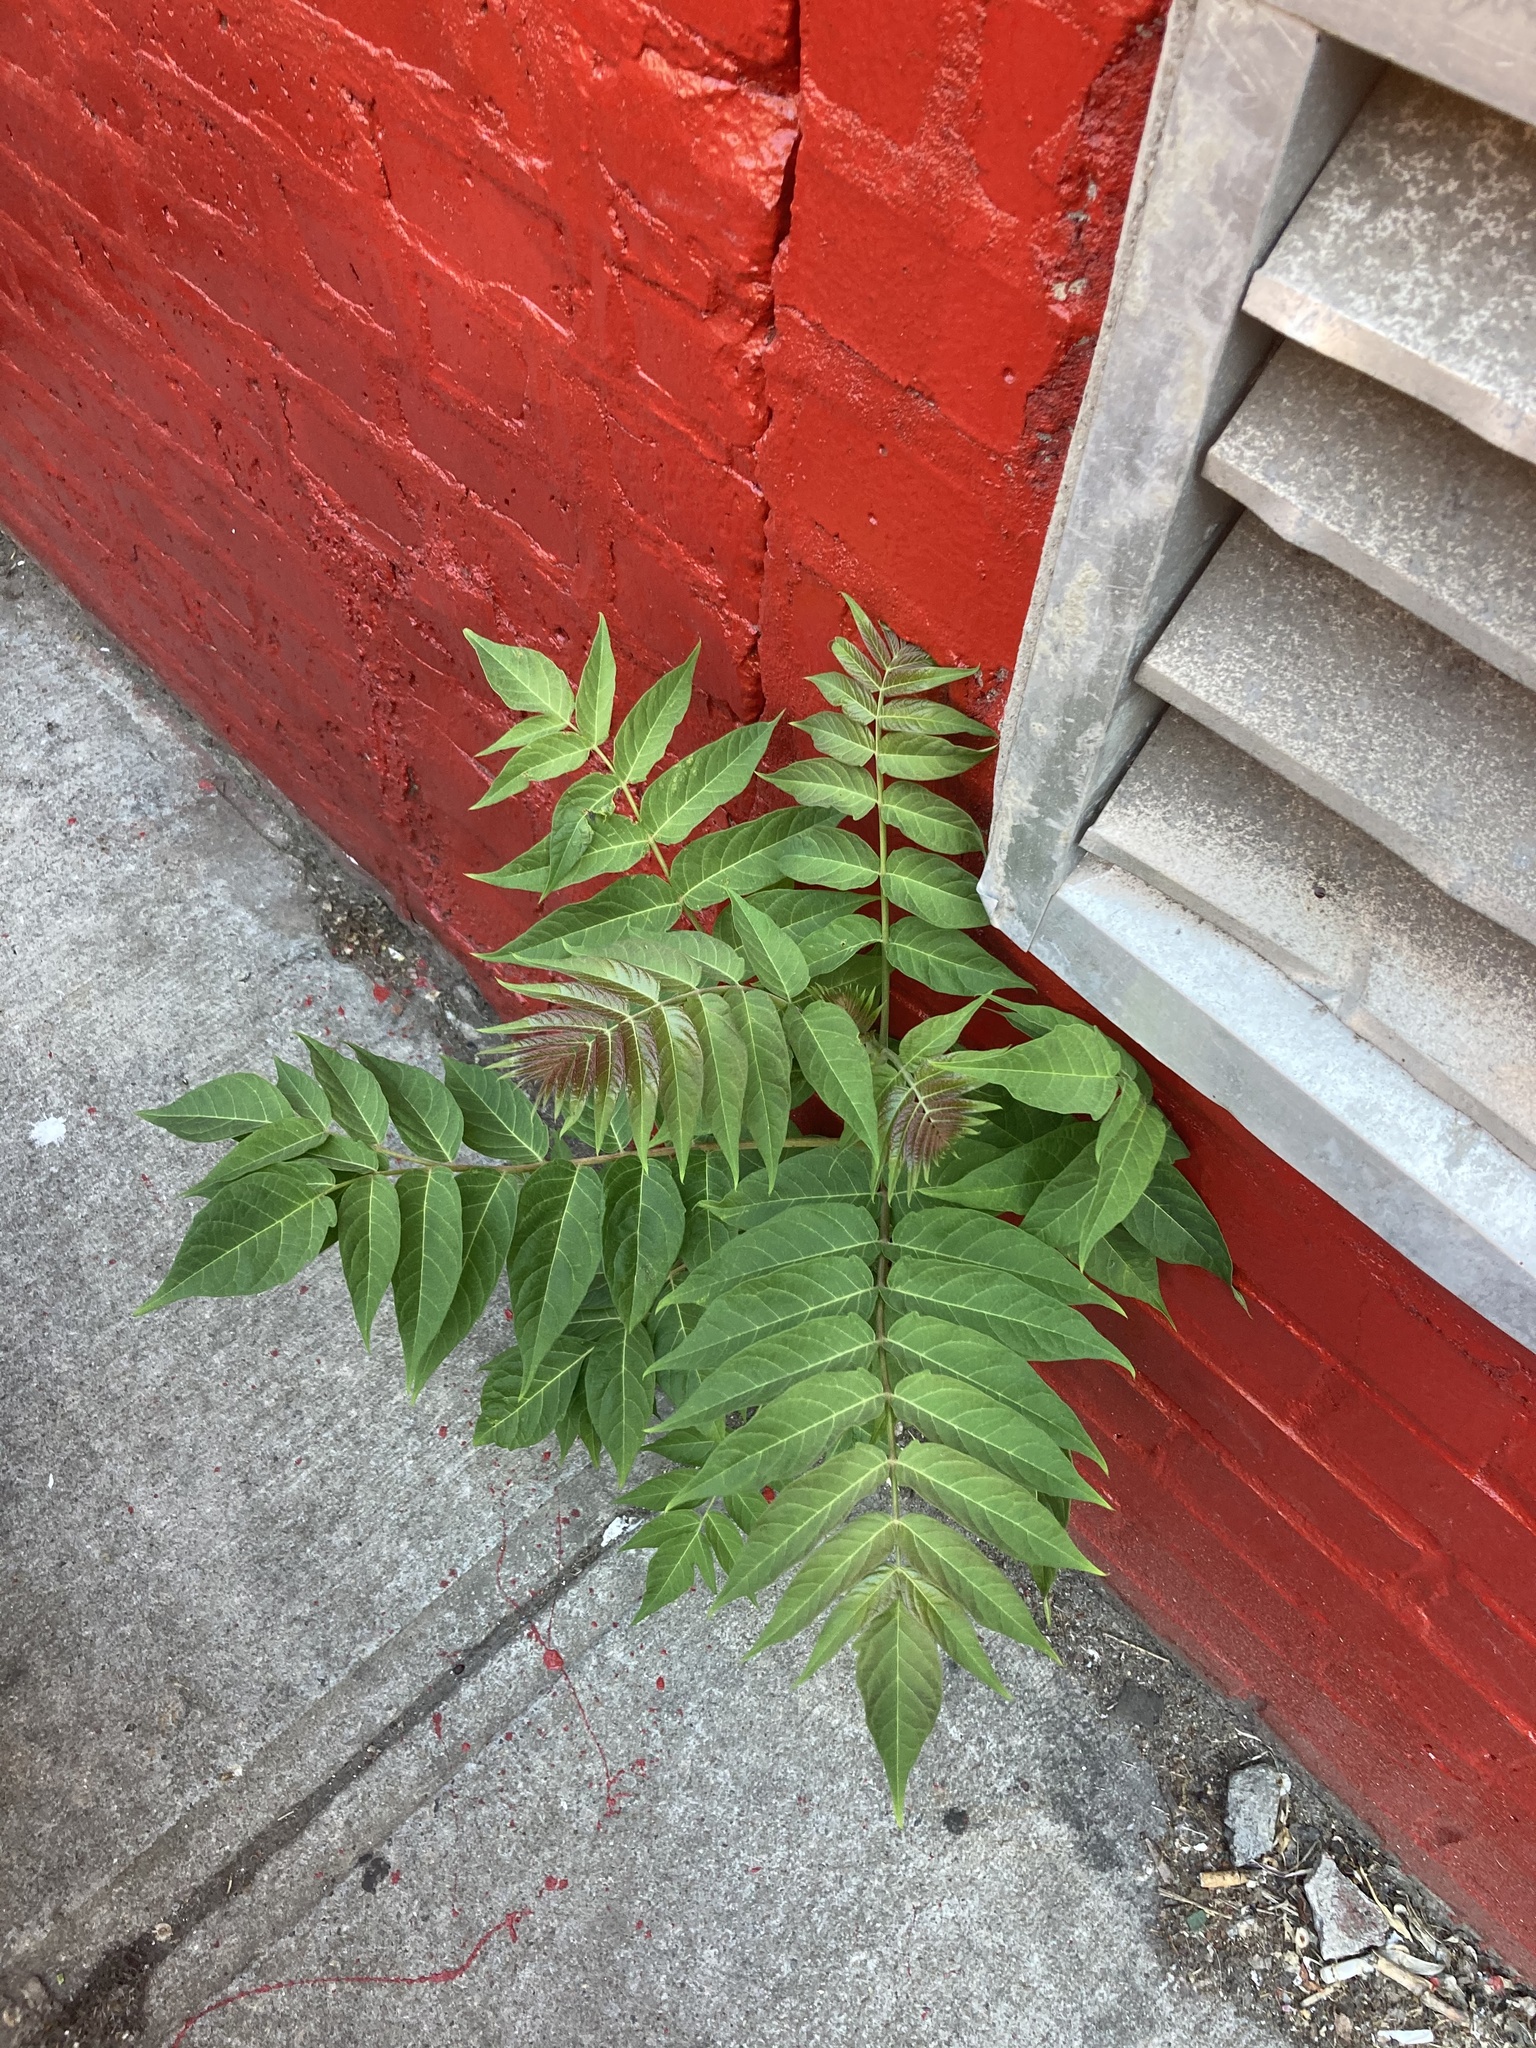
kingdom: Plantae
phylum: Tracheophyta
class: Magnoliopsida
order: Sapindales
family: Simaroubaceae
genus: Ailanthus
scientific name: Ailanthus altissima
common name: Tree-of-heaven
